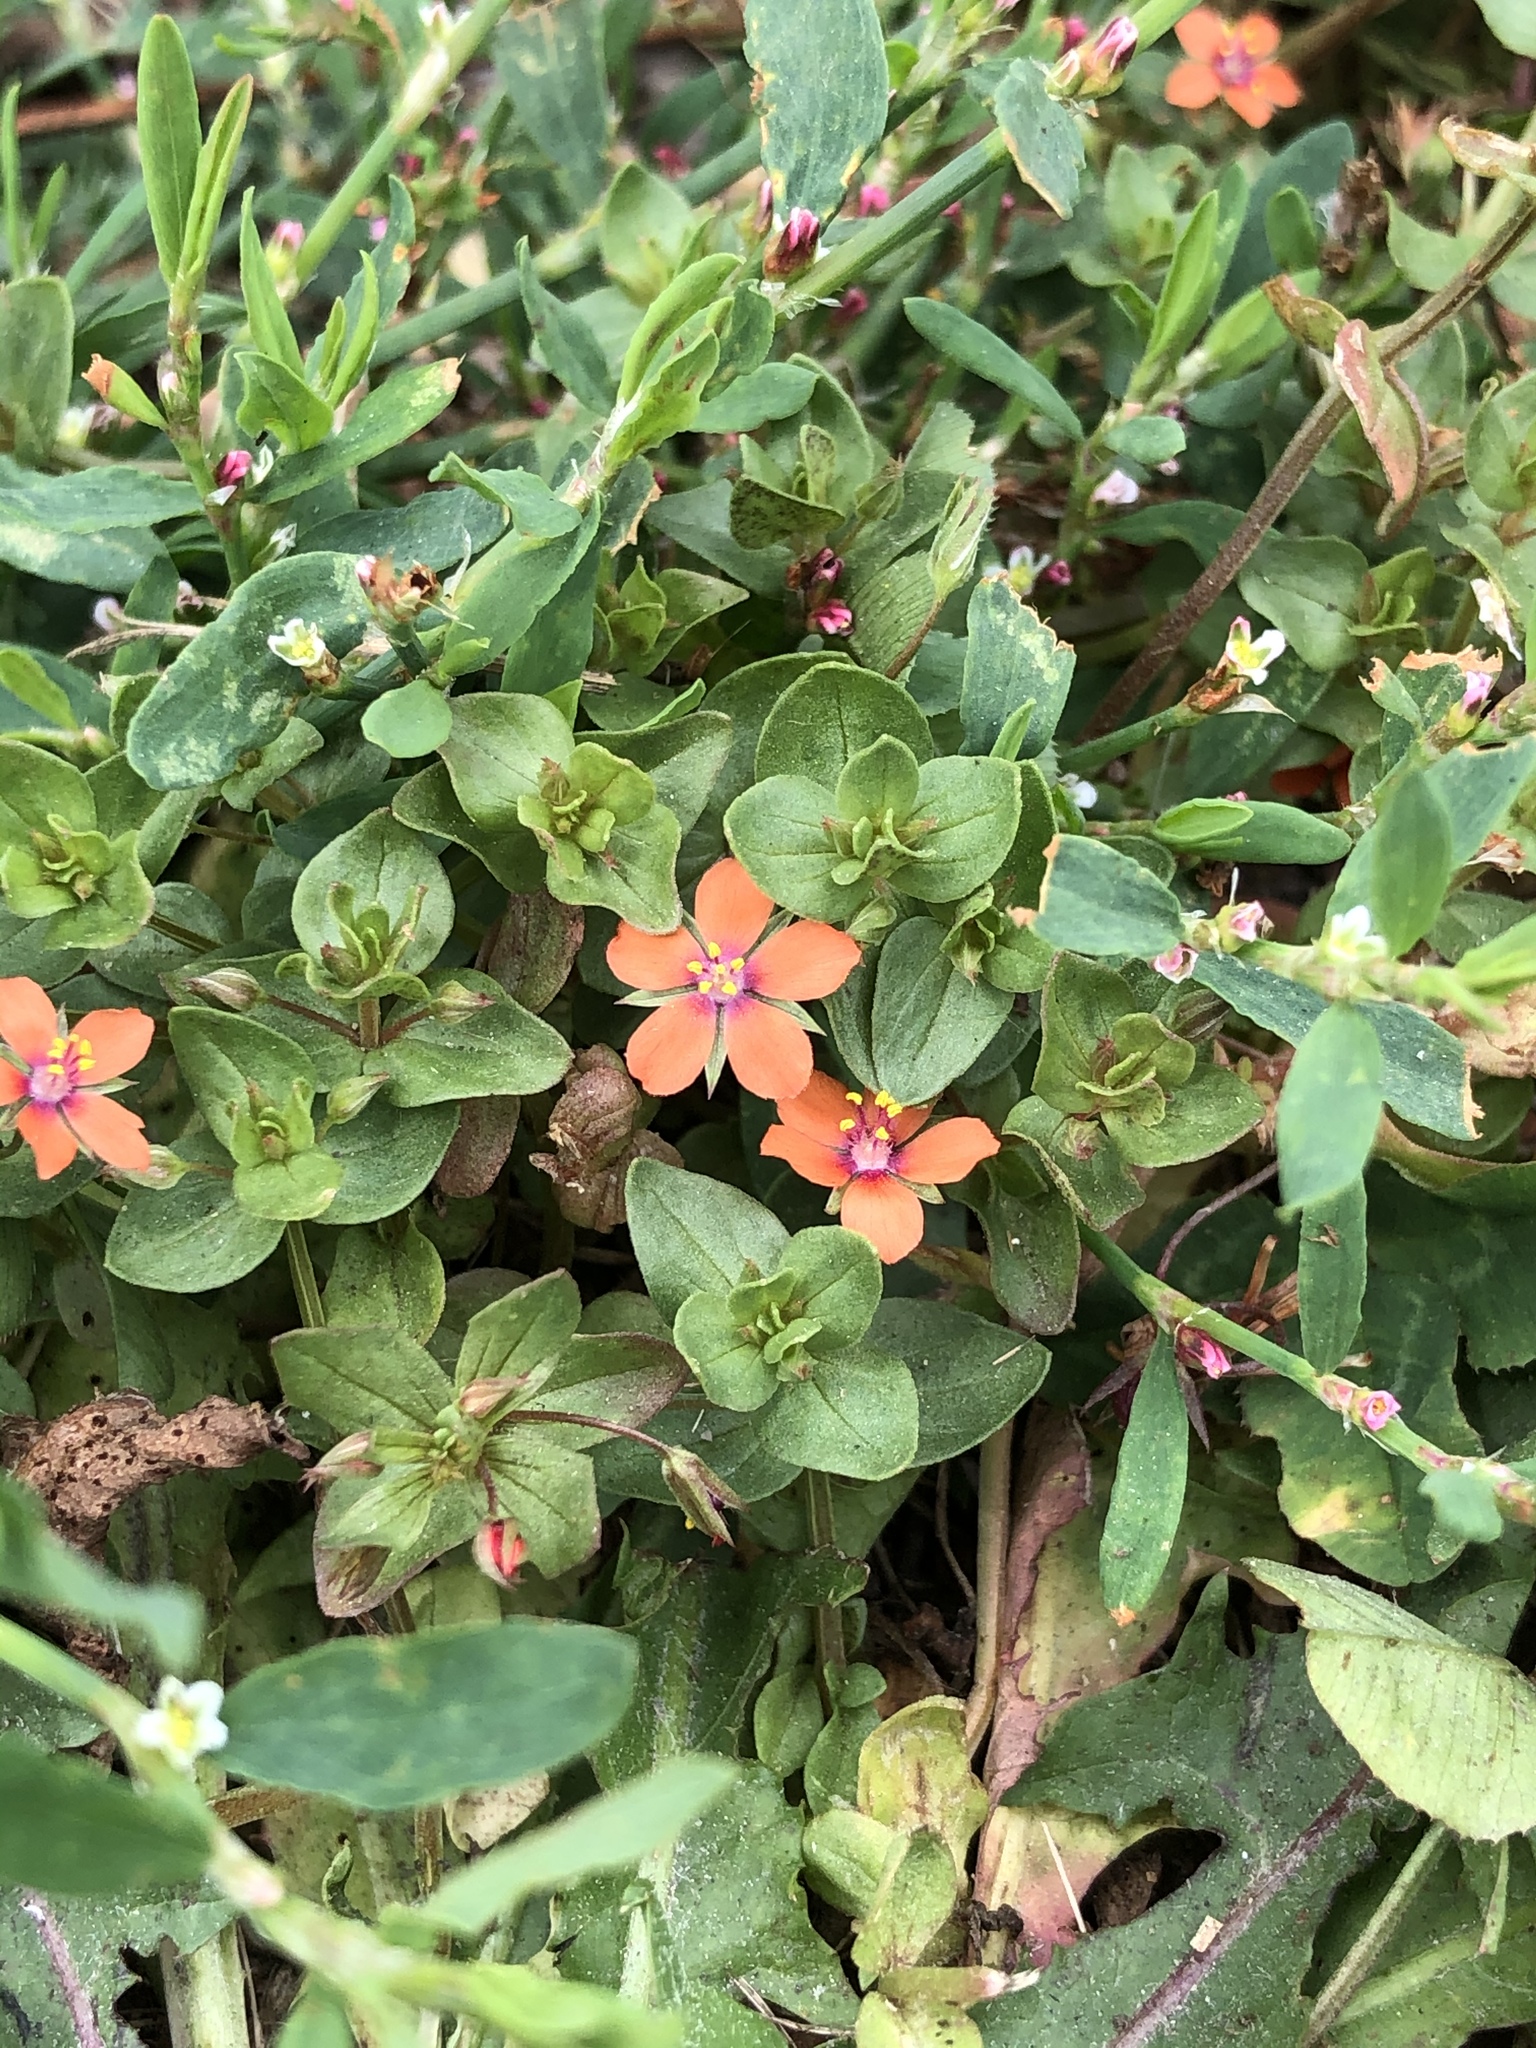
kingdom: Plantae
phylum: Tracheophyta
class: Magnoliopsida
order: Ericales
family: Primulaceae
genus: Lysimachia
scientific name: Lysimachia arvensis
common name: Scarlet pimpernel
